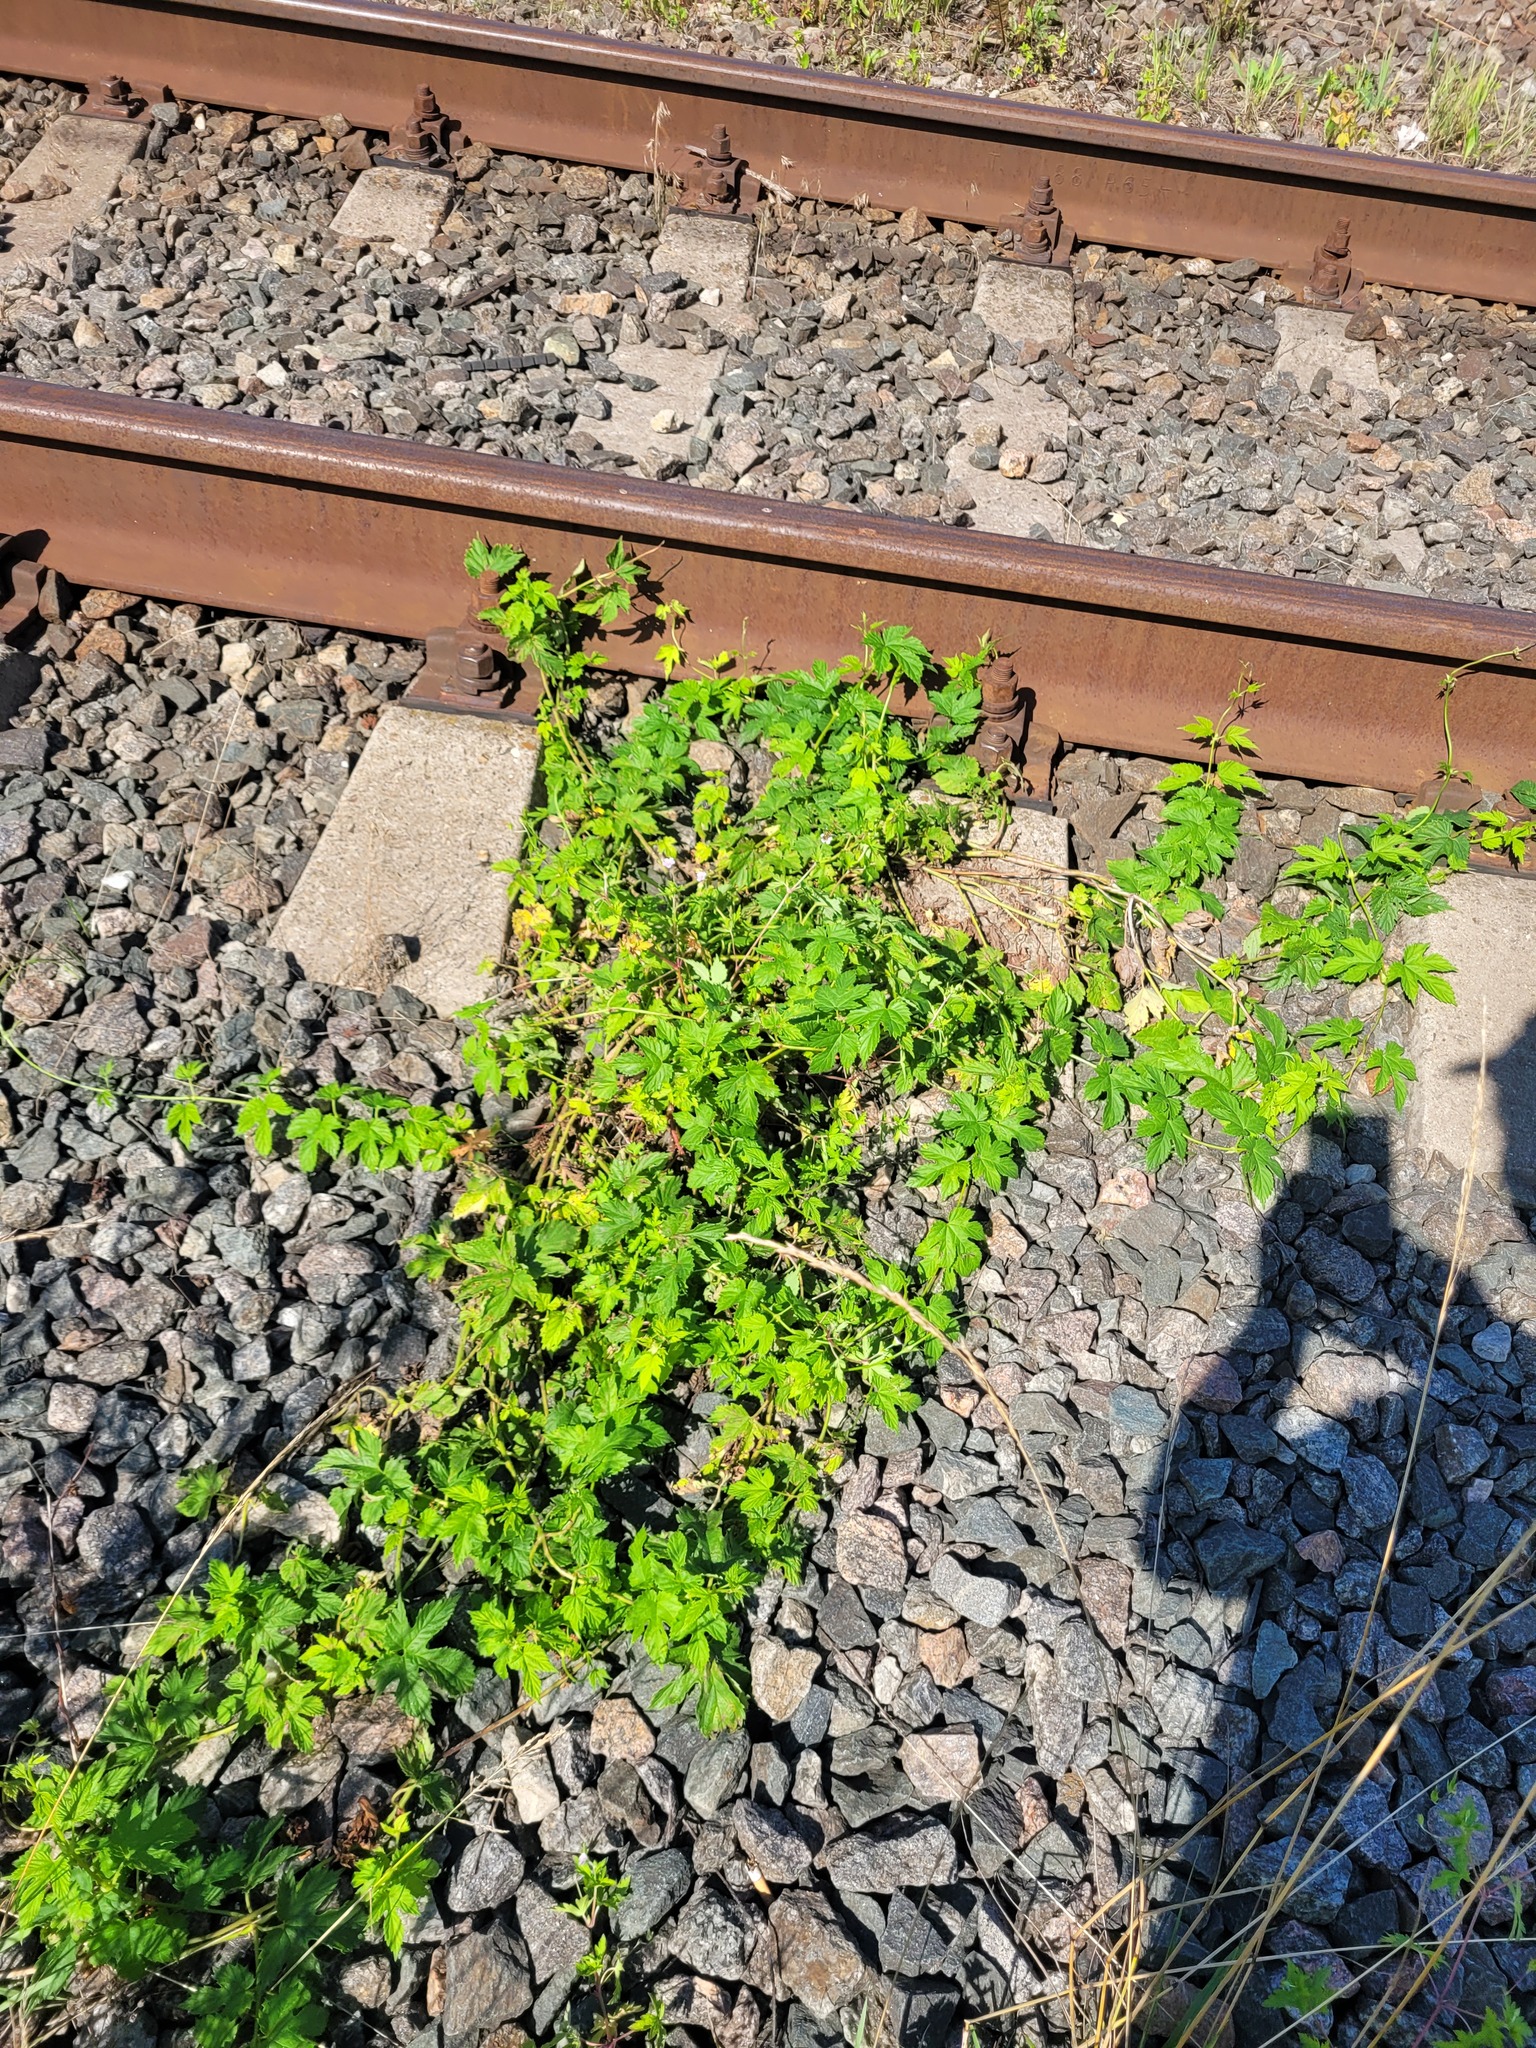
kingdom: Plantae
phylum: Tracheophyta
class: Magnoliopsida
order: Rosales
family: Cannabaceae
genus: Humulus
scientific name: Humulus lupulus
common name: Hop
